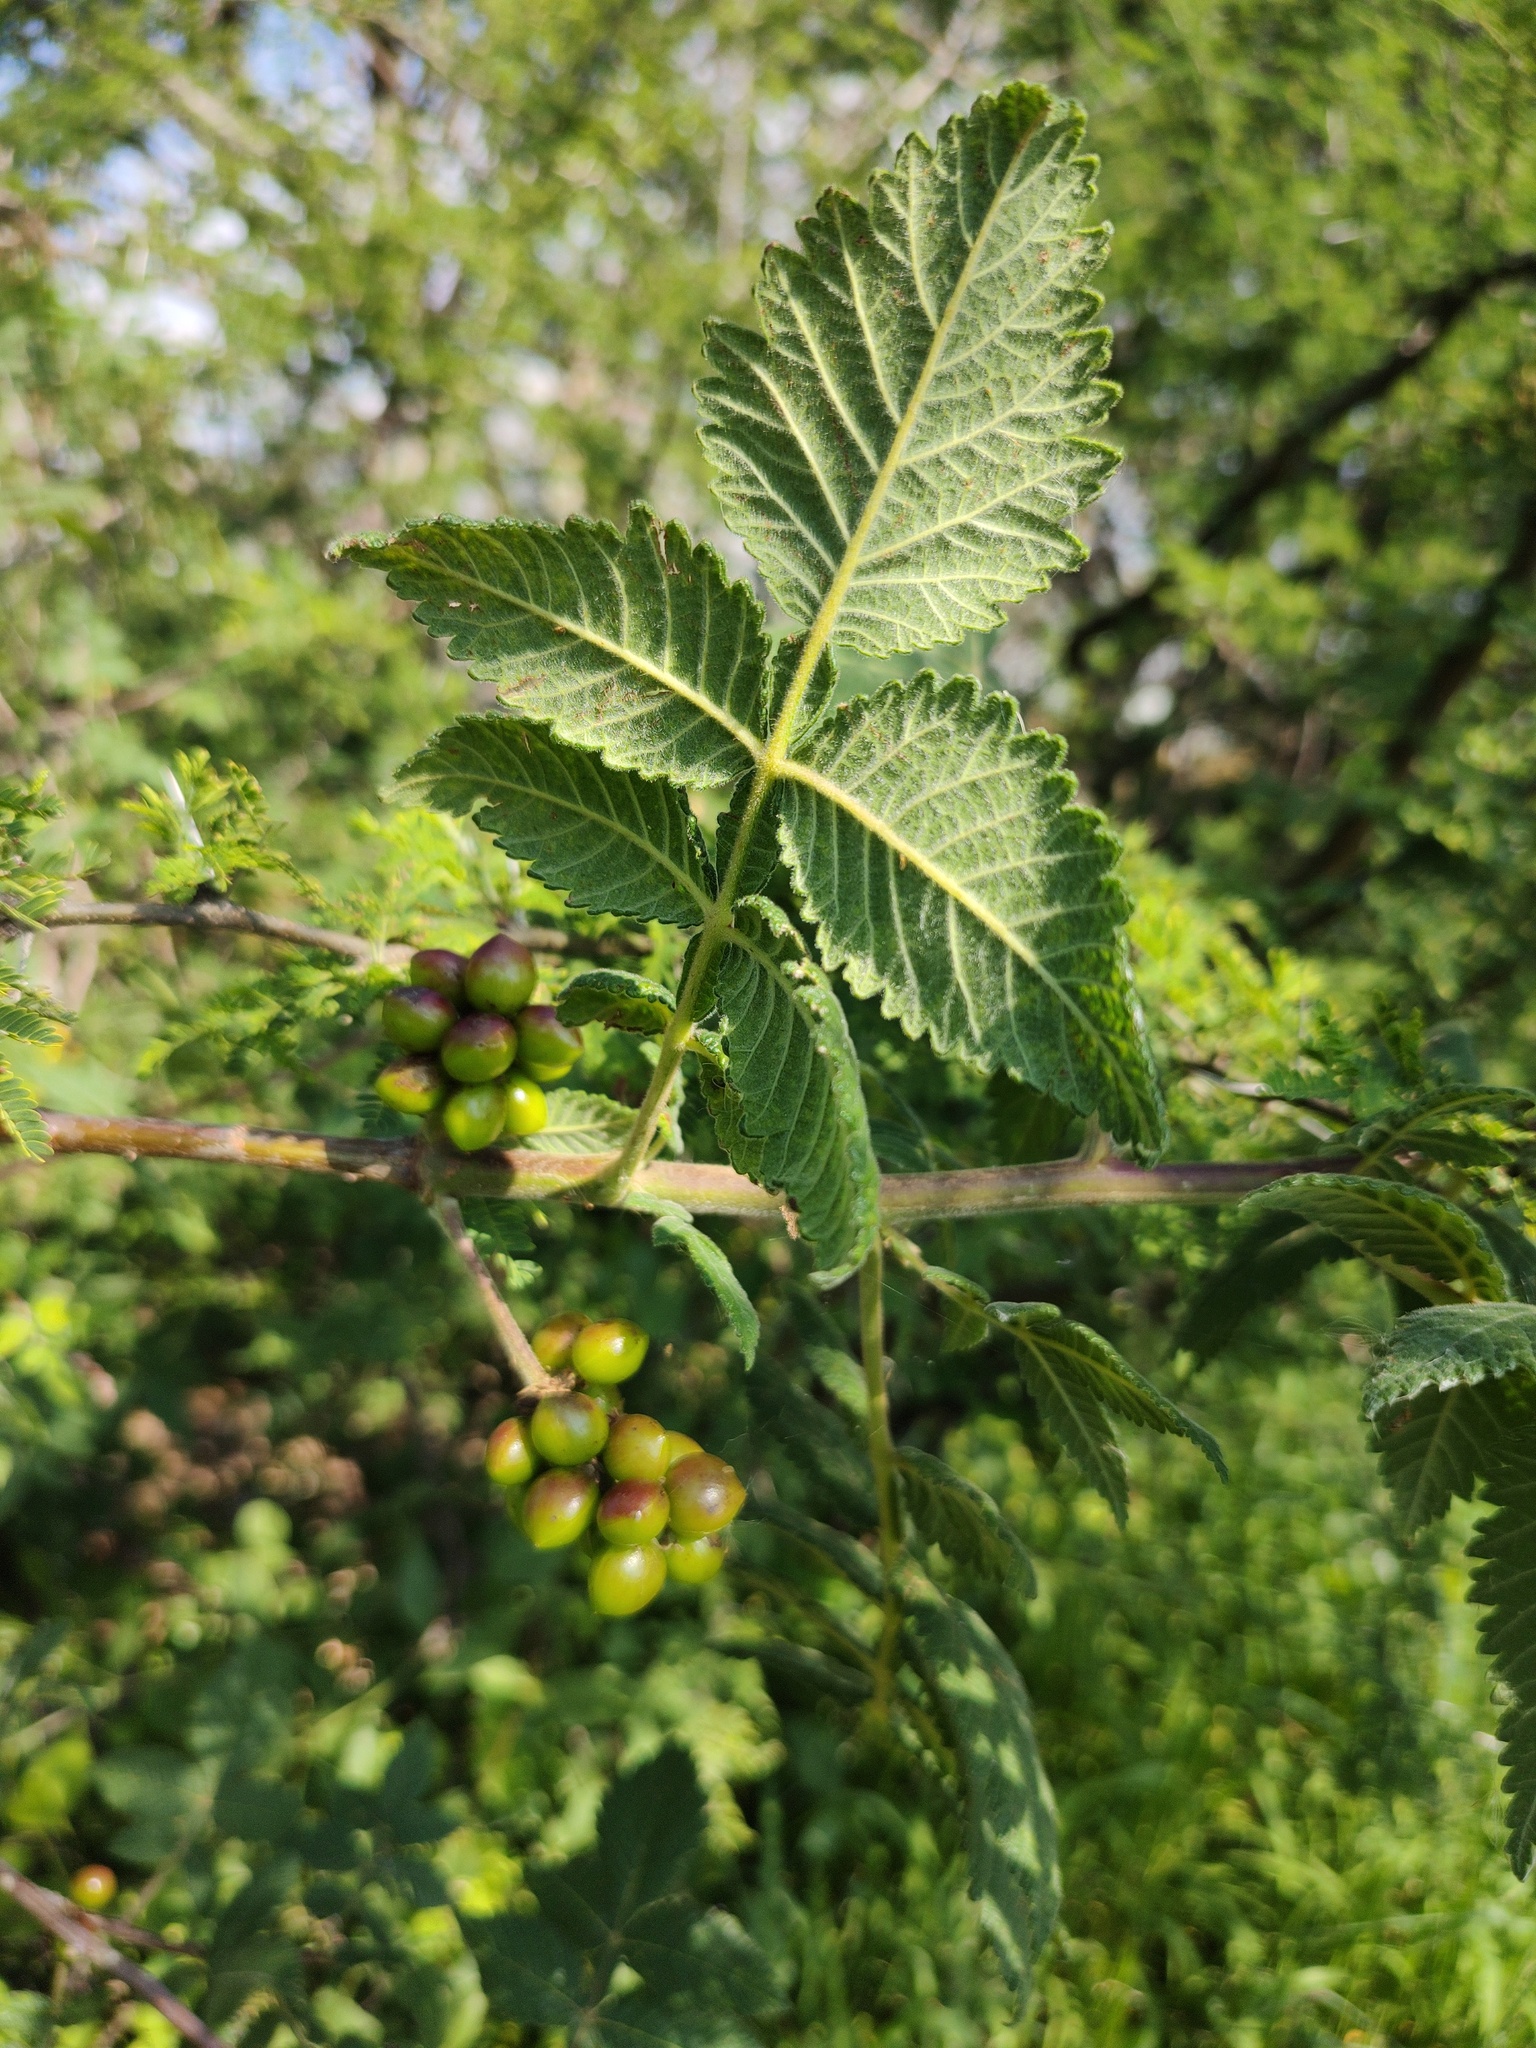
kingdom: Plantae
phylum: Tracheophyta
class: Magnoliopsida
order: Sapindales
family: Burseraceae
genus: Bursera
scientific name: Bursera cuneata
